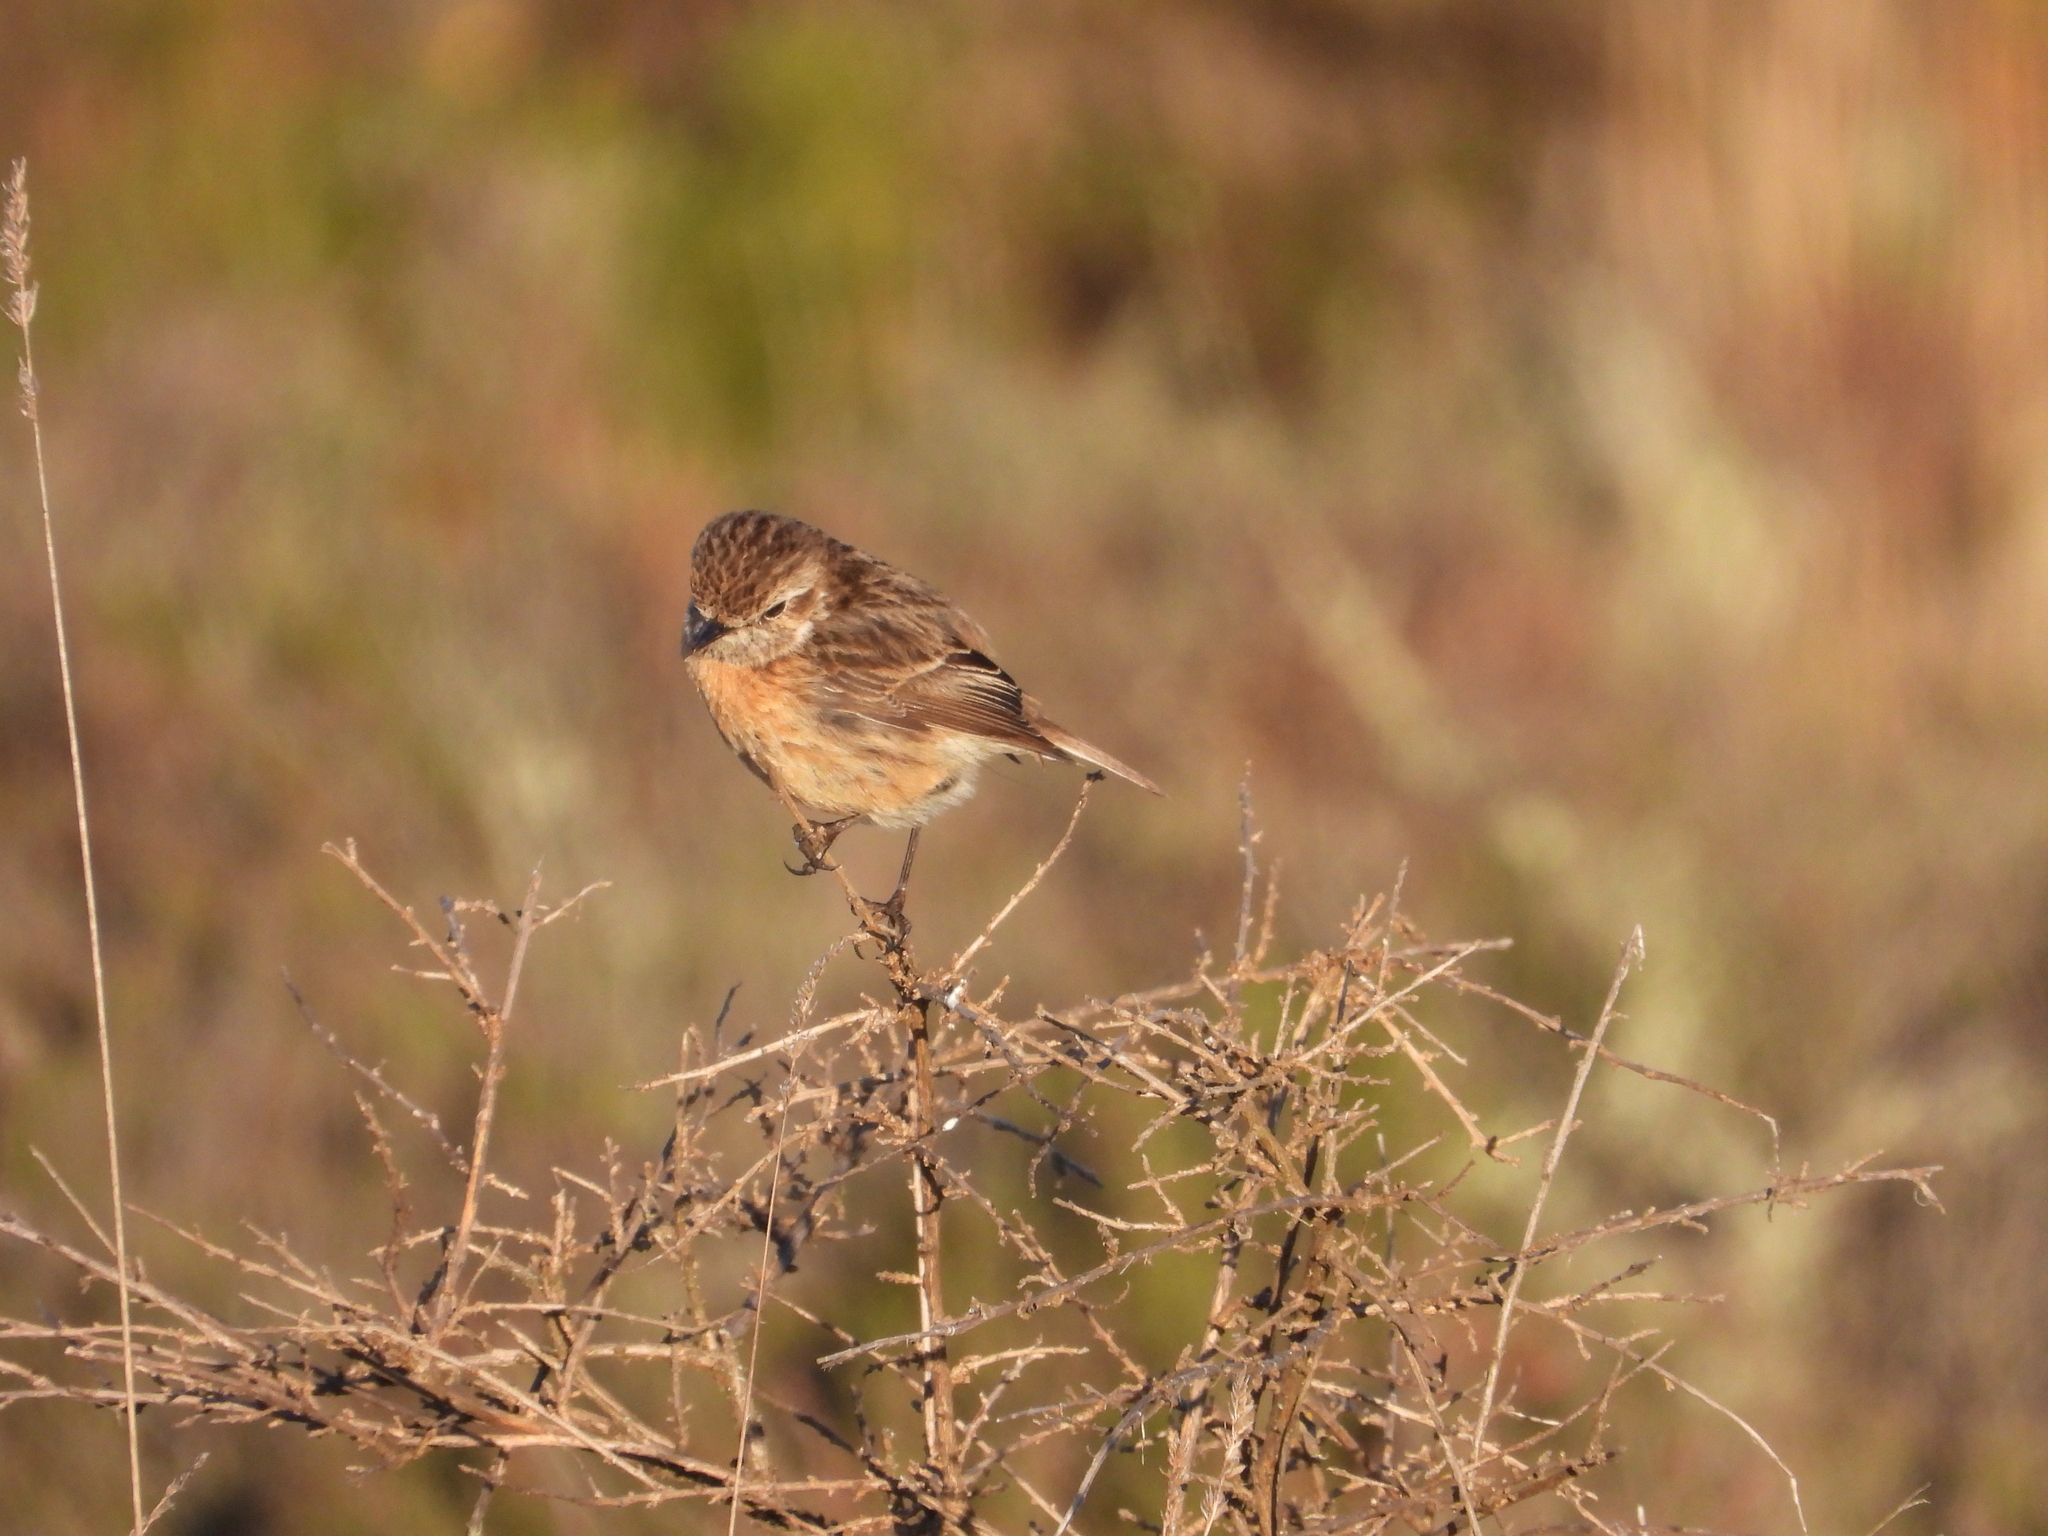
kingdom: Animalia
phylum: Chordata
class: Aves
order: Passeriformes
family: Muscicapidae
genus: Saxicola
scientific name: Saxicola rubicola
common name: European stonechat
